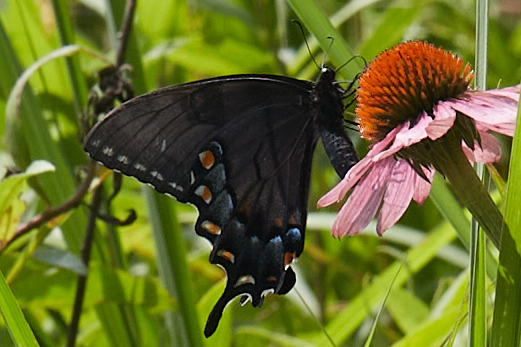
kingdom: Animalia
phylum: Arthropoda
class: Insecta
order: Lepidoptera
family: Papilionidae
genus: Papilio
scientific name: Papilio glaucus
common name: Tiger swallowtail
